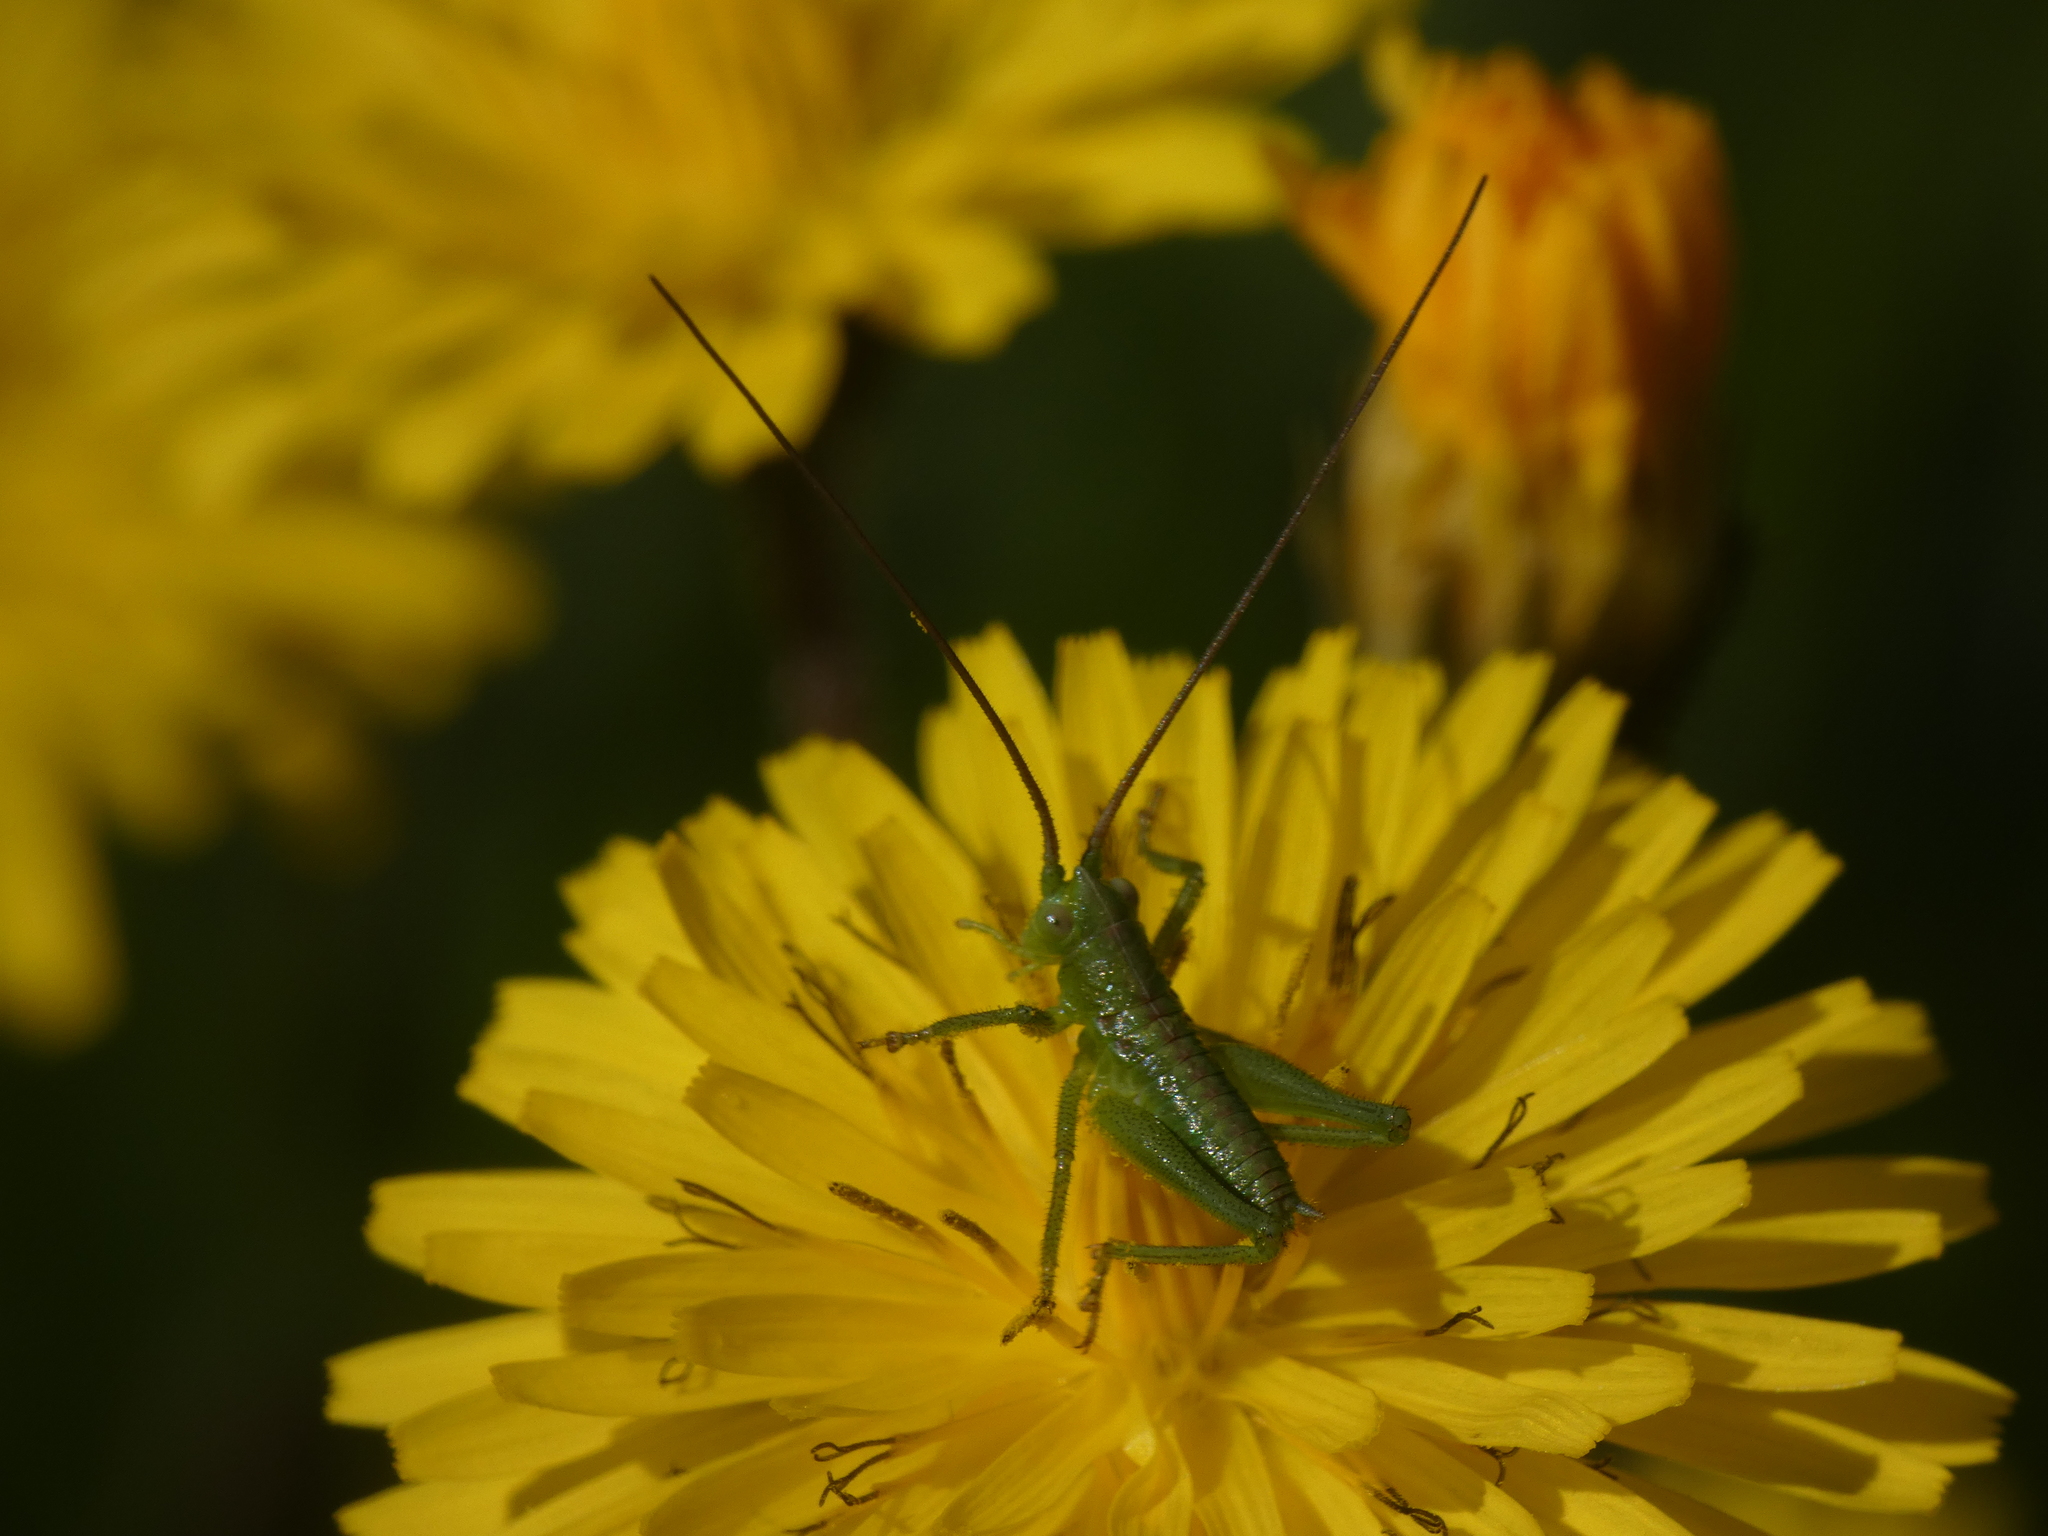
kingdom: Animalia
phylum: Arthropoda
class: Insecta
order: Orthoptera
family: Tettigoniidae
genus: Tettigonia
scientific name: Tettigonia viridissima
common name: Great green bush-cricket
